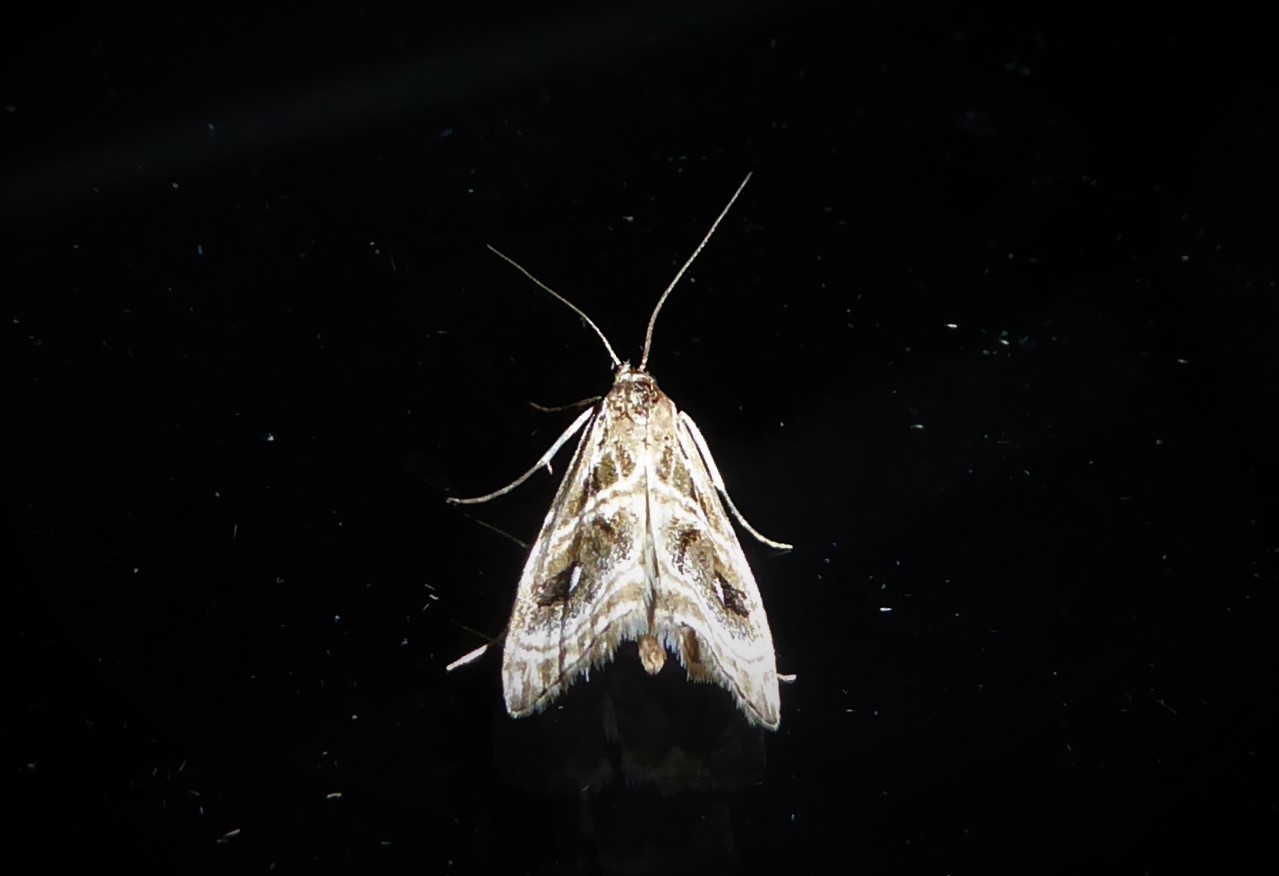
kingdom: Animalia
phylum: Arthropoda
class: Insecta
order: Lepidoptera
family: Crambidae
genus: Gadira
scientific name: Gadira acerella
